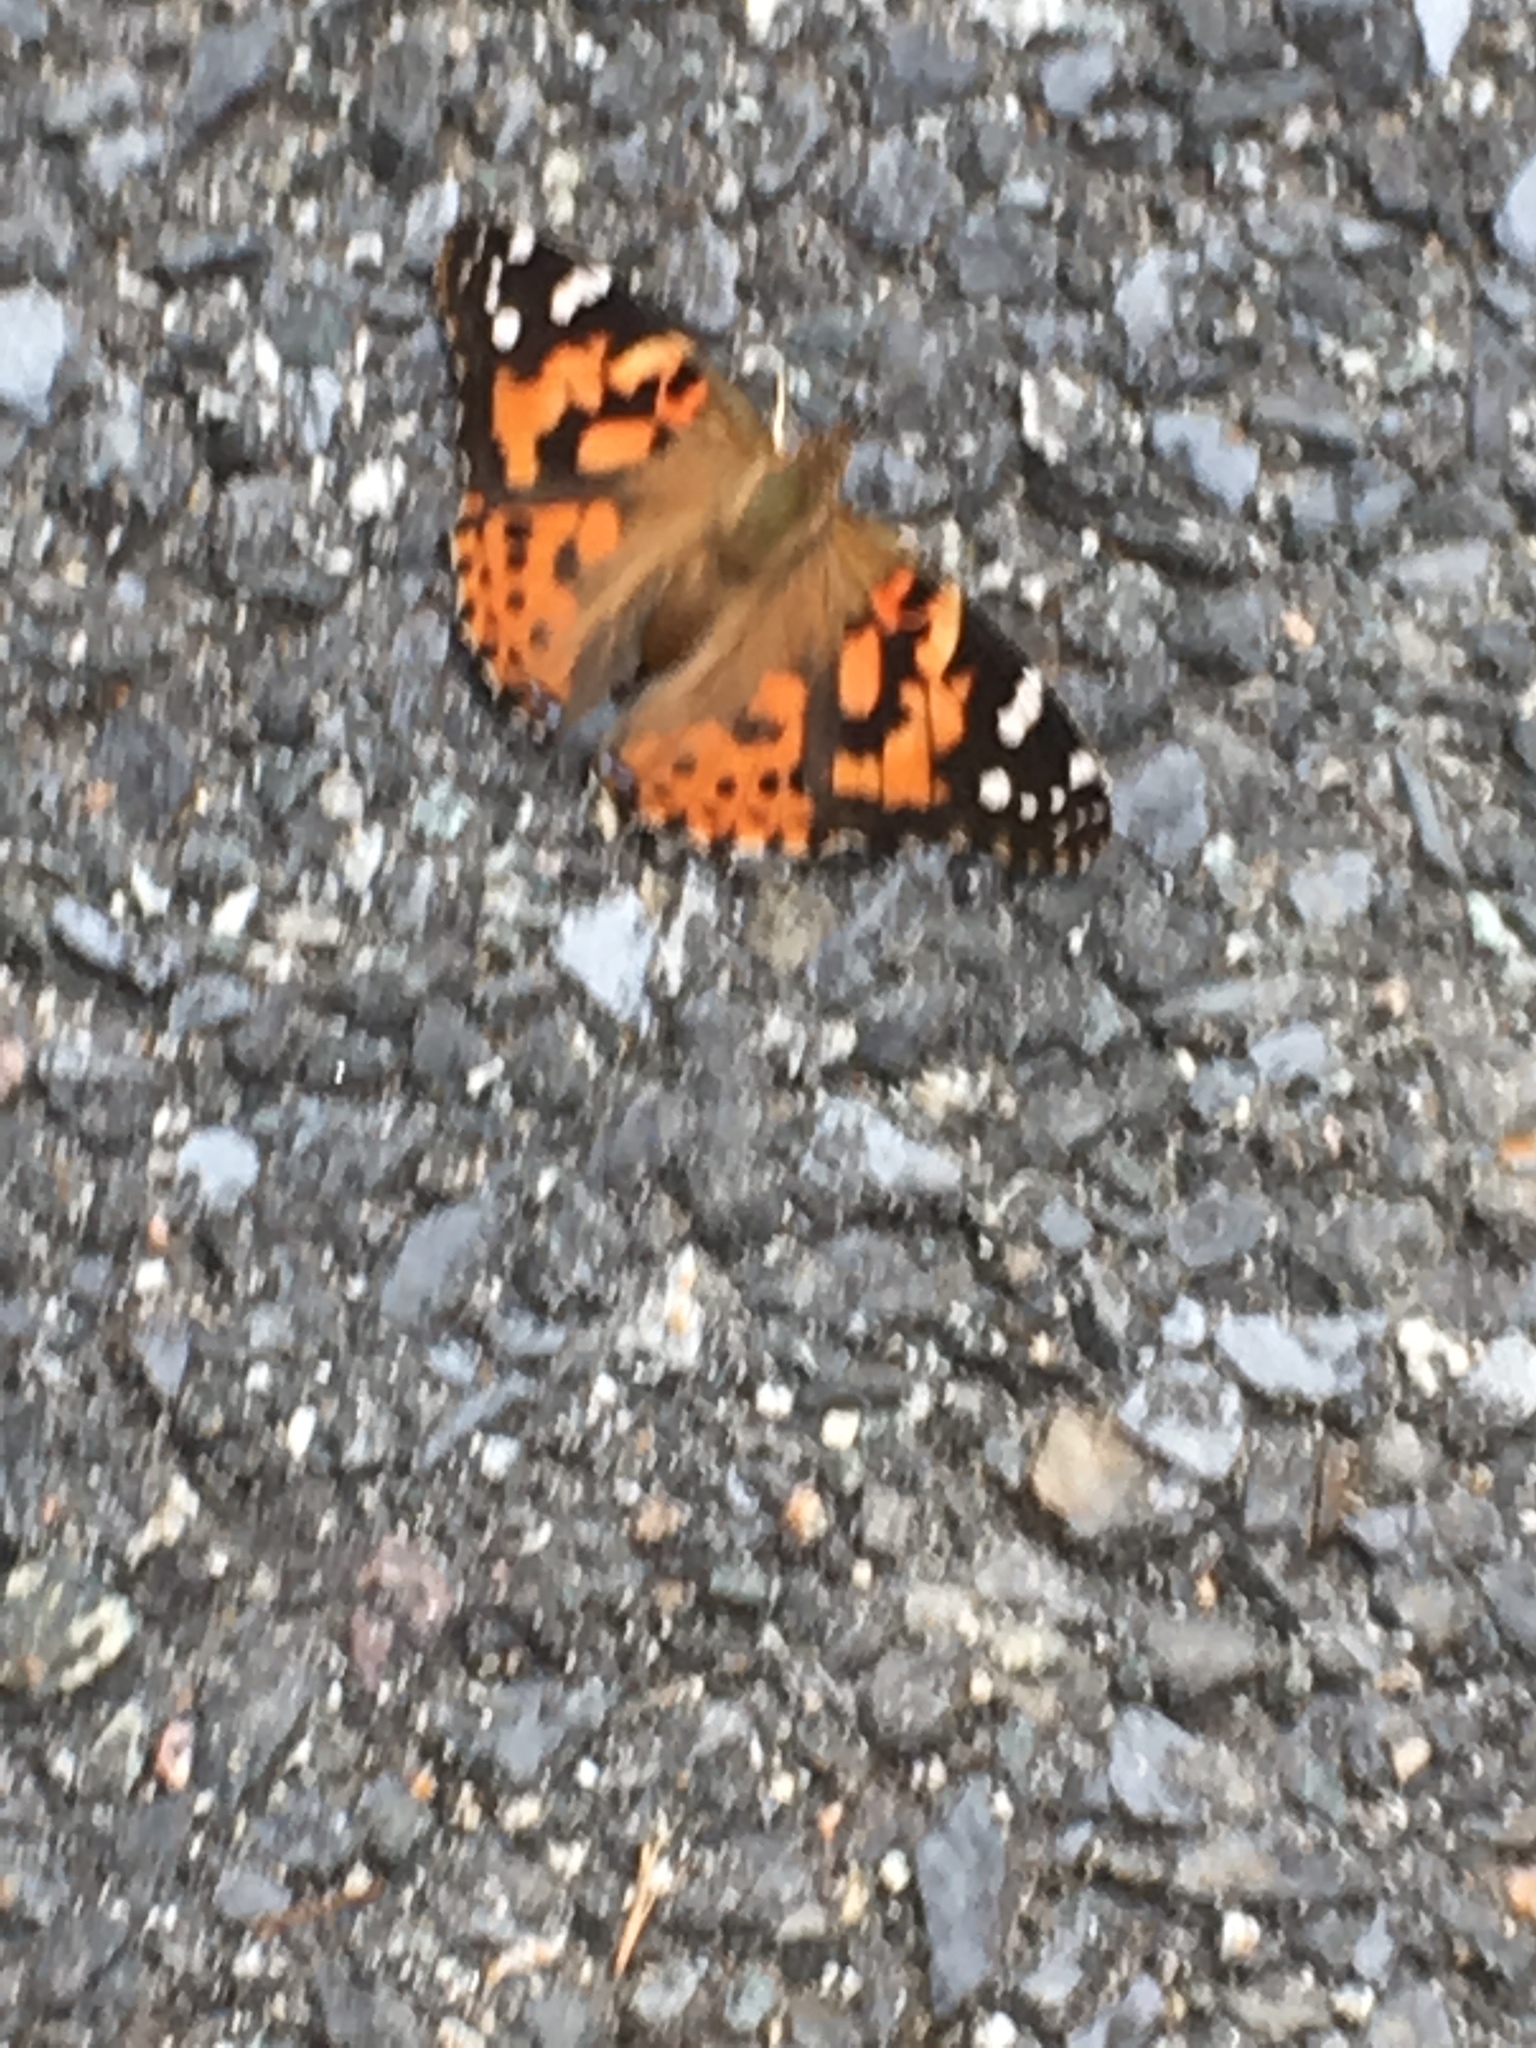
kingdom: Animalia
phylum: Arthropoda
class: Insecta
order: Lepidoptera
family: Nymphalidae
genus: Vanessa
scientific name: Vanessa cardui
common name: Painted lady
